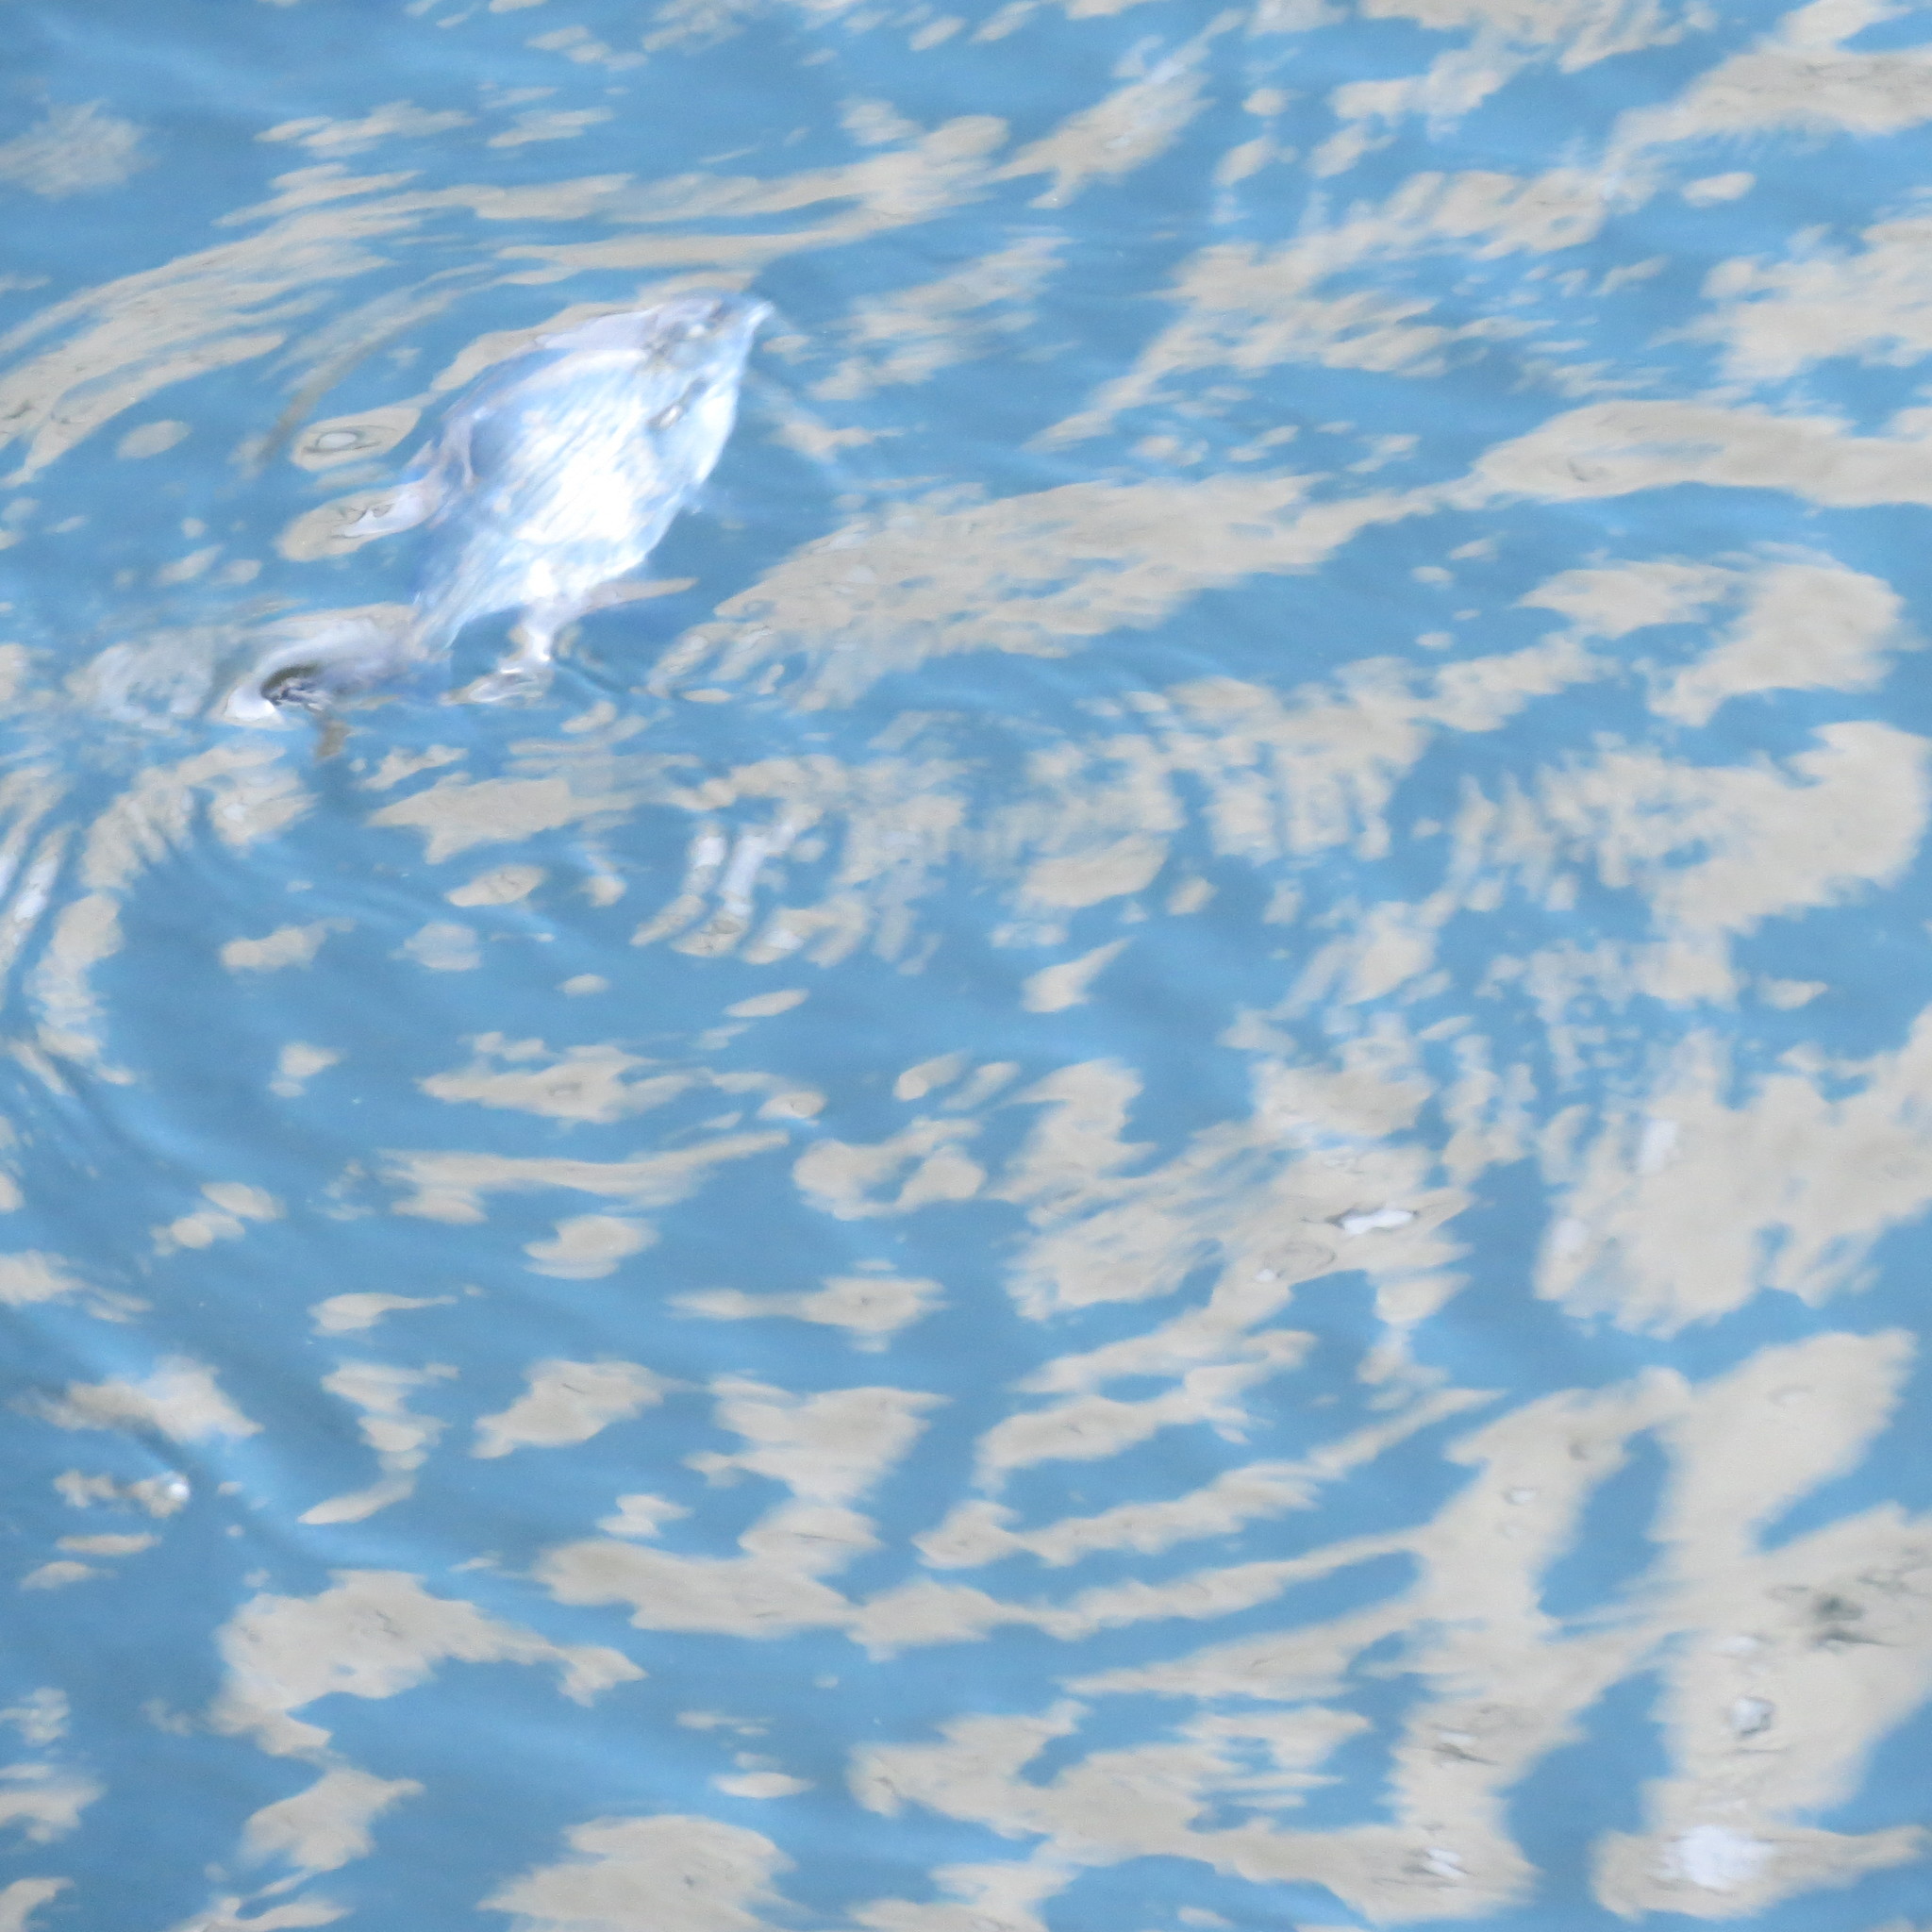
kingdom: Animalia
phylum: Chordata
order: Cypriniformes
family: Cyprinidae
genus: Abramis
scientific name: Abramis brama
